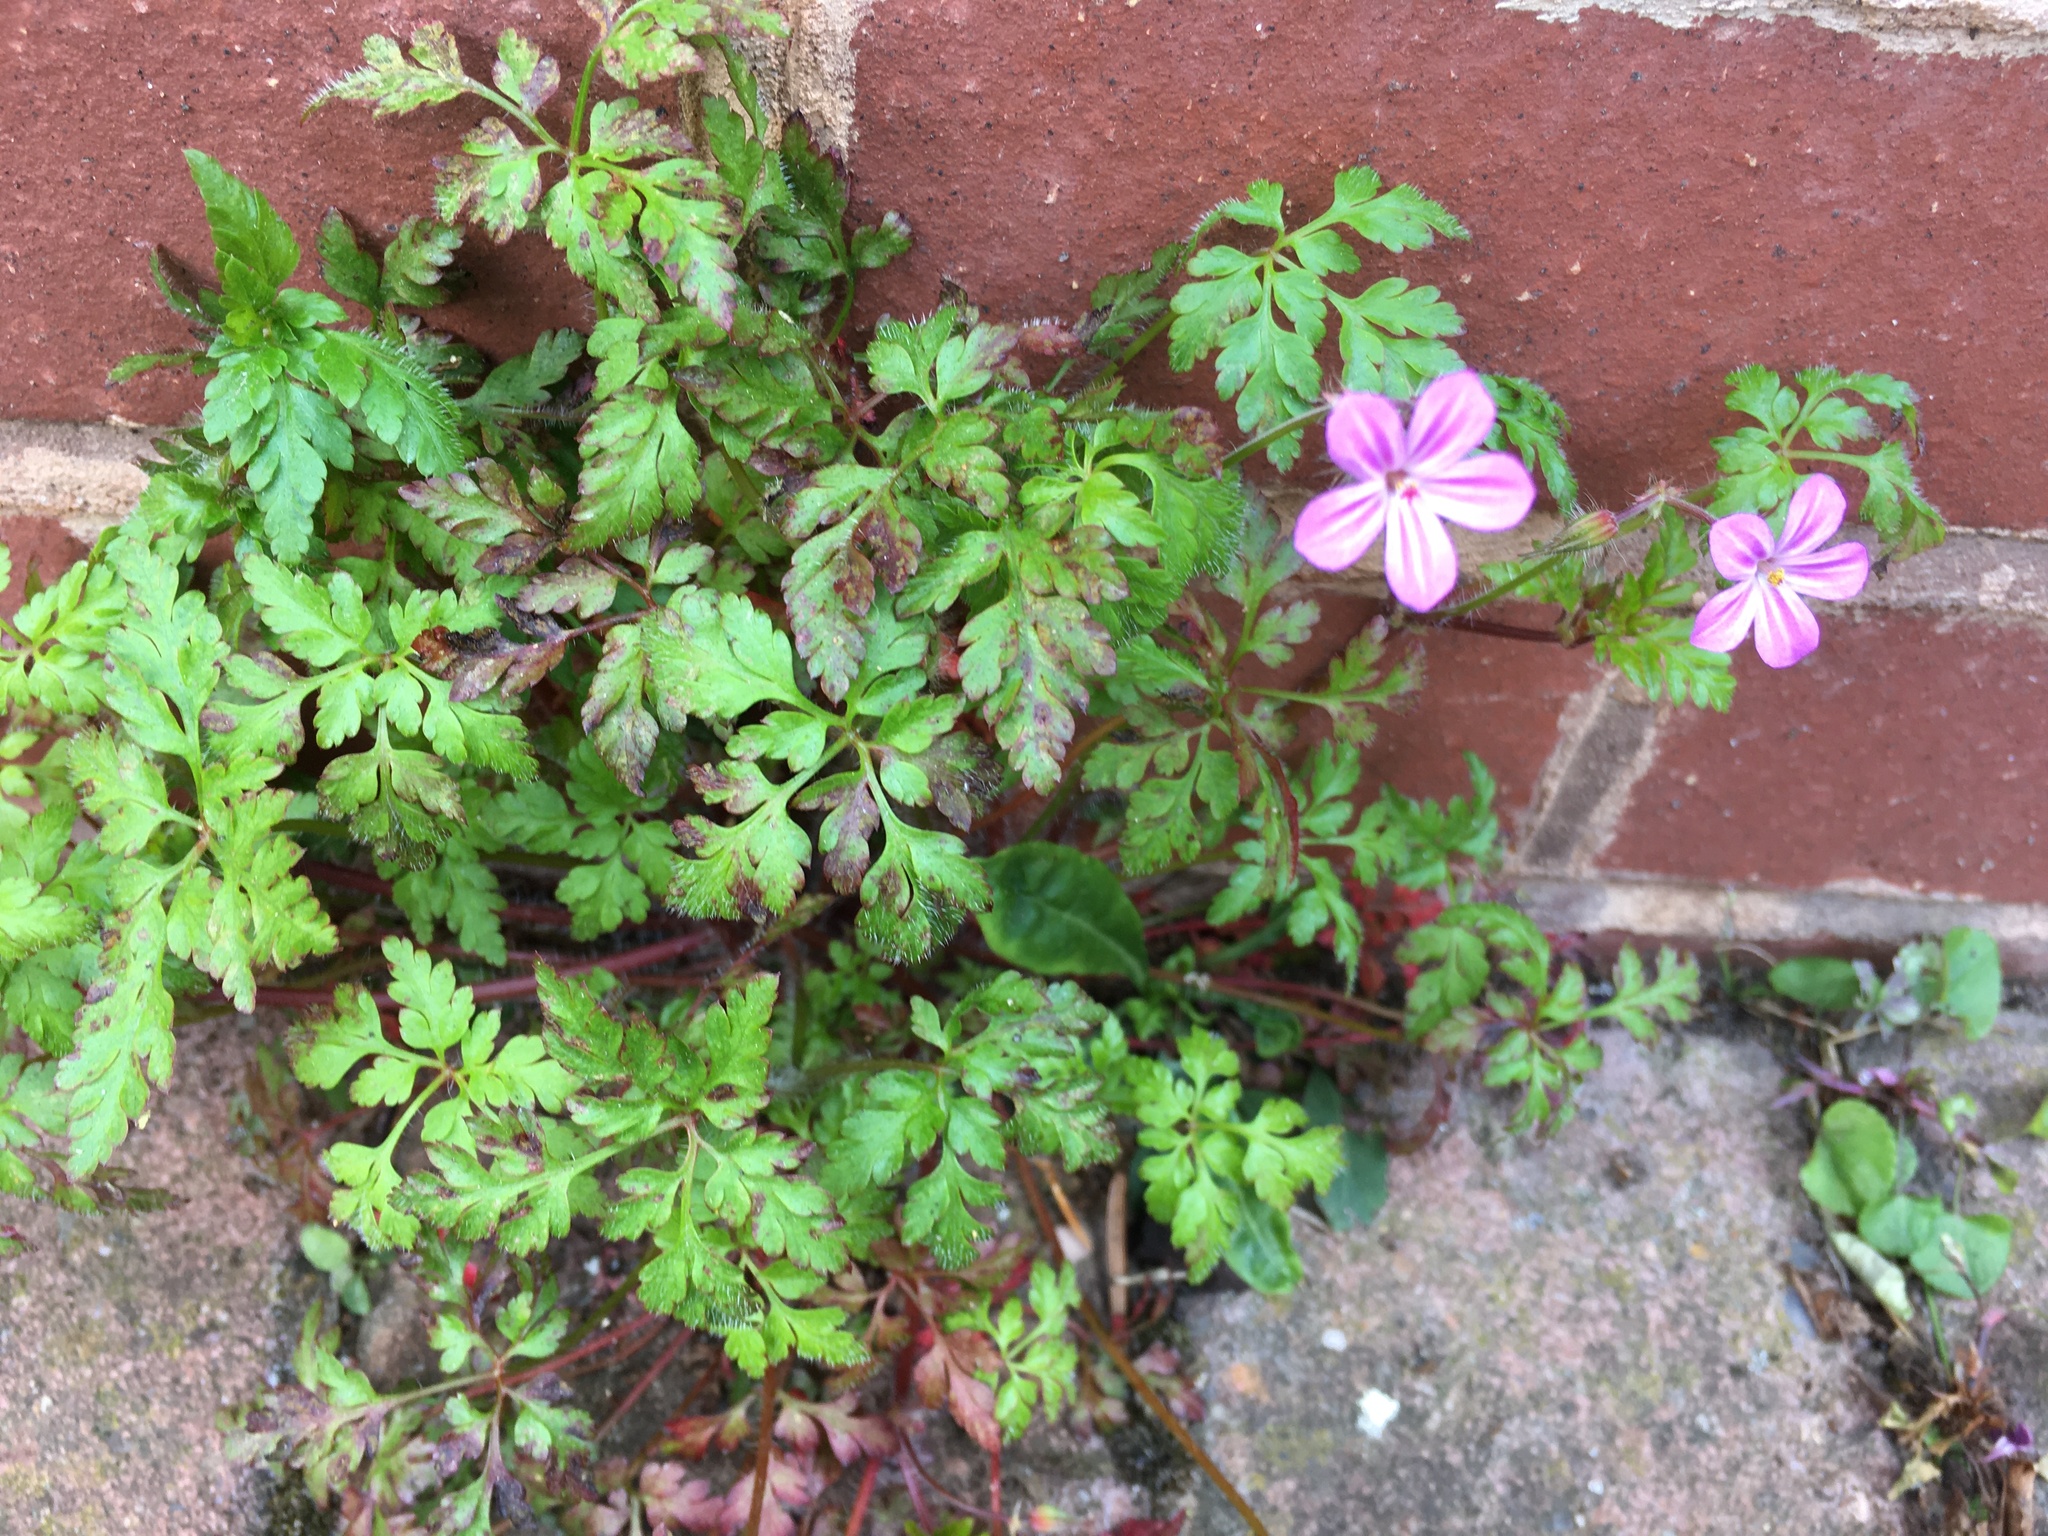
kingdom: Plantae
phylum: Tracheophyta
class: Magnoliopsida
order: Geraniales
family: Geraniaceae
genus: Geranium
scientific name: Geranium robertianum
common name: Herb-robert
